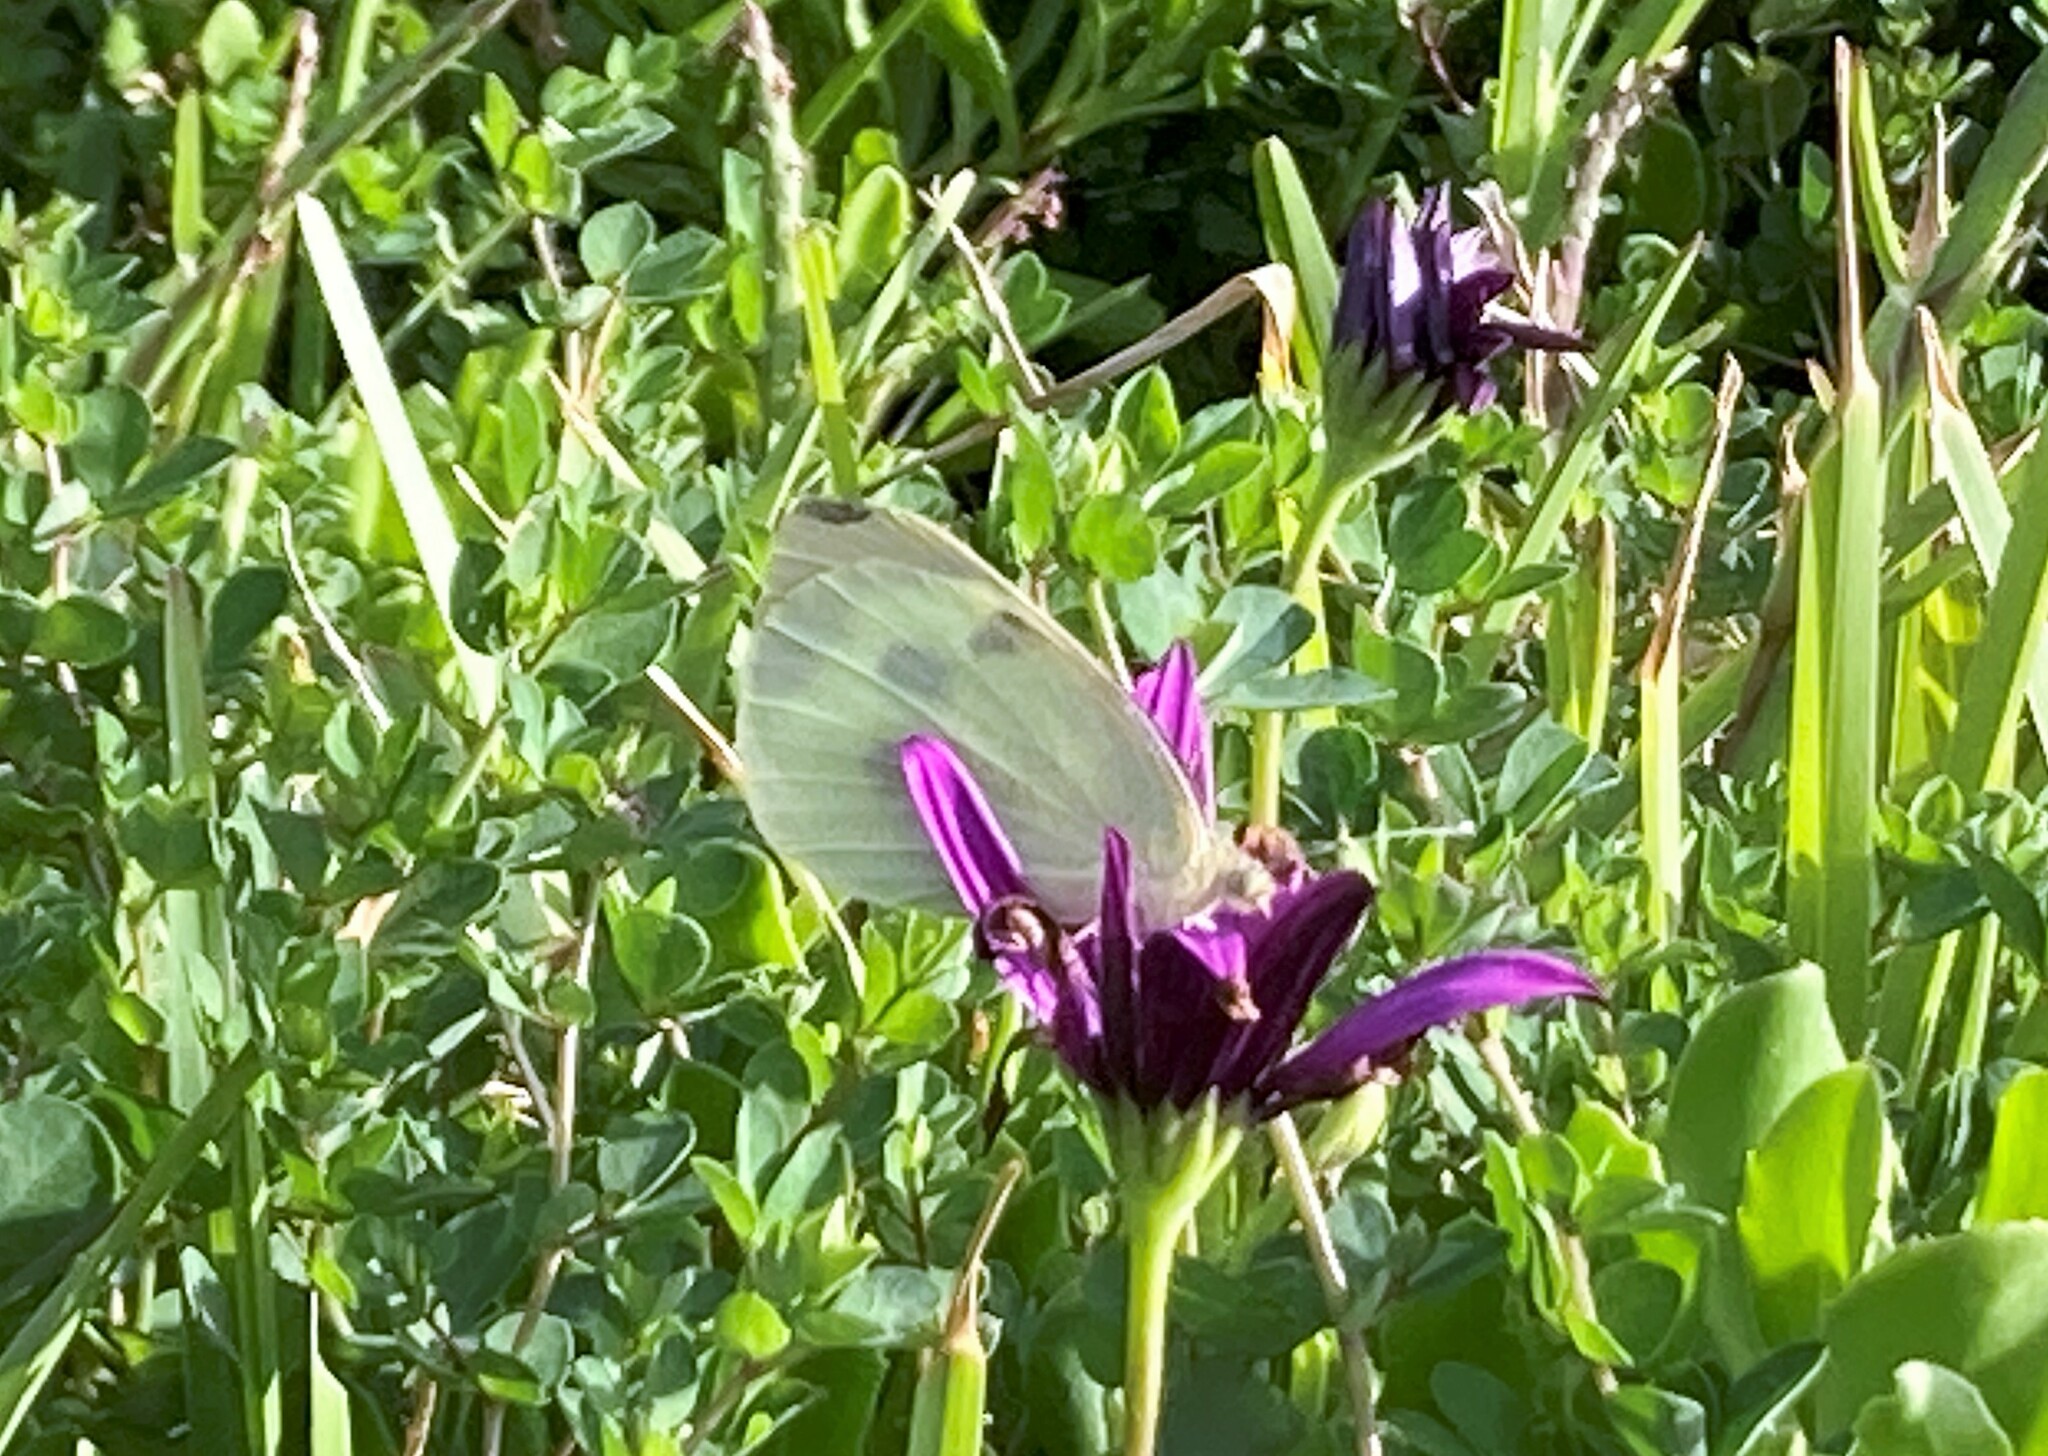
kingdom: Animalia
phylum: Arthropoda
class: Insecta
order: Lepidoptera
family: Pieridae
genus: Pieris
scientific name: Pieris brassicae
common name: Large white
